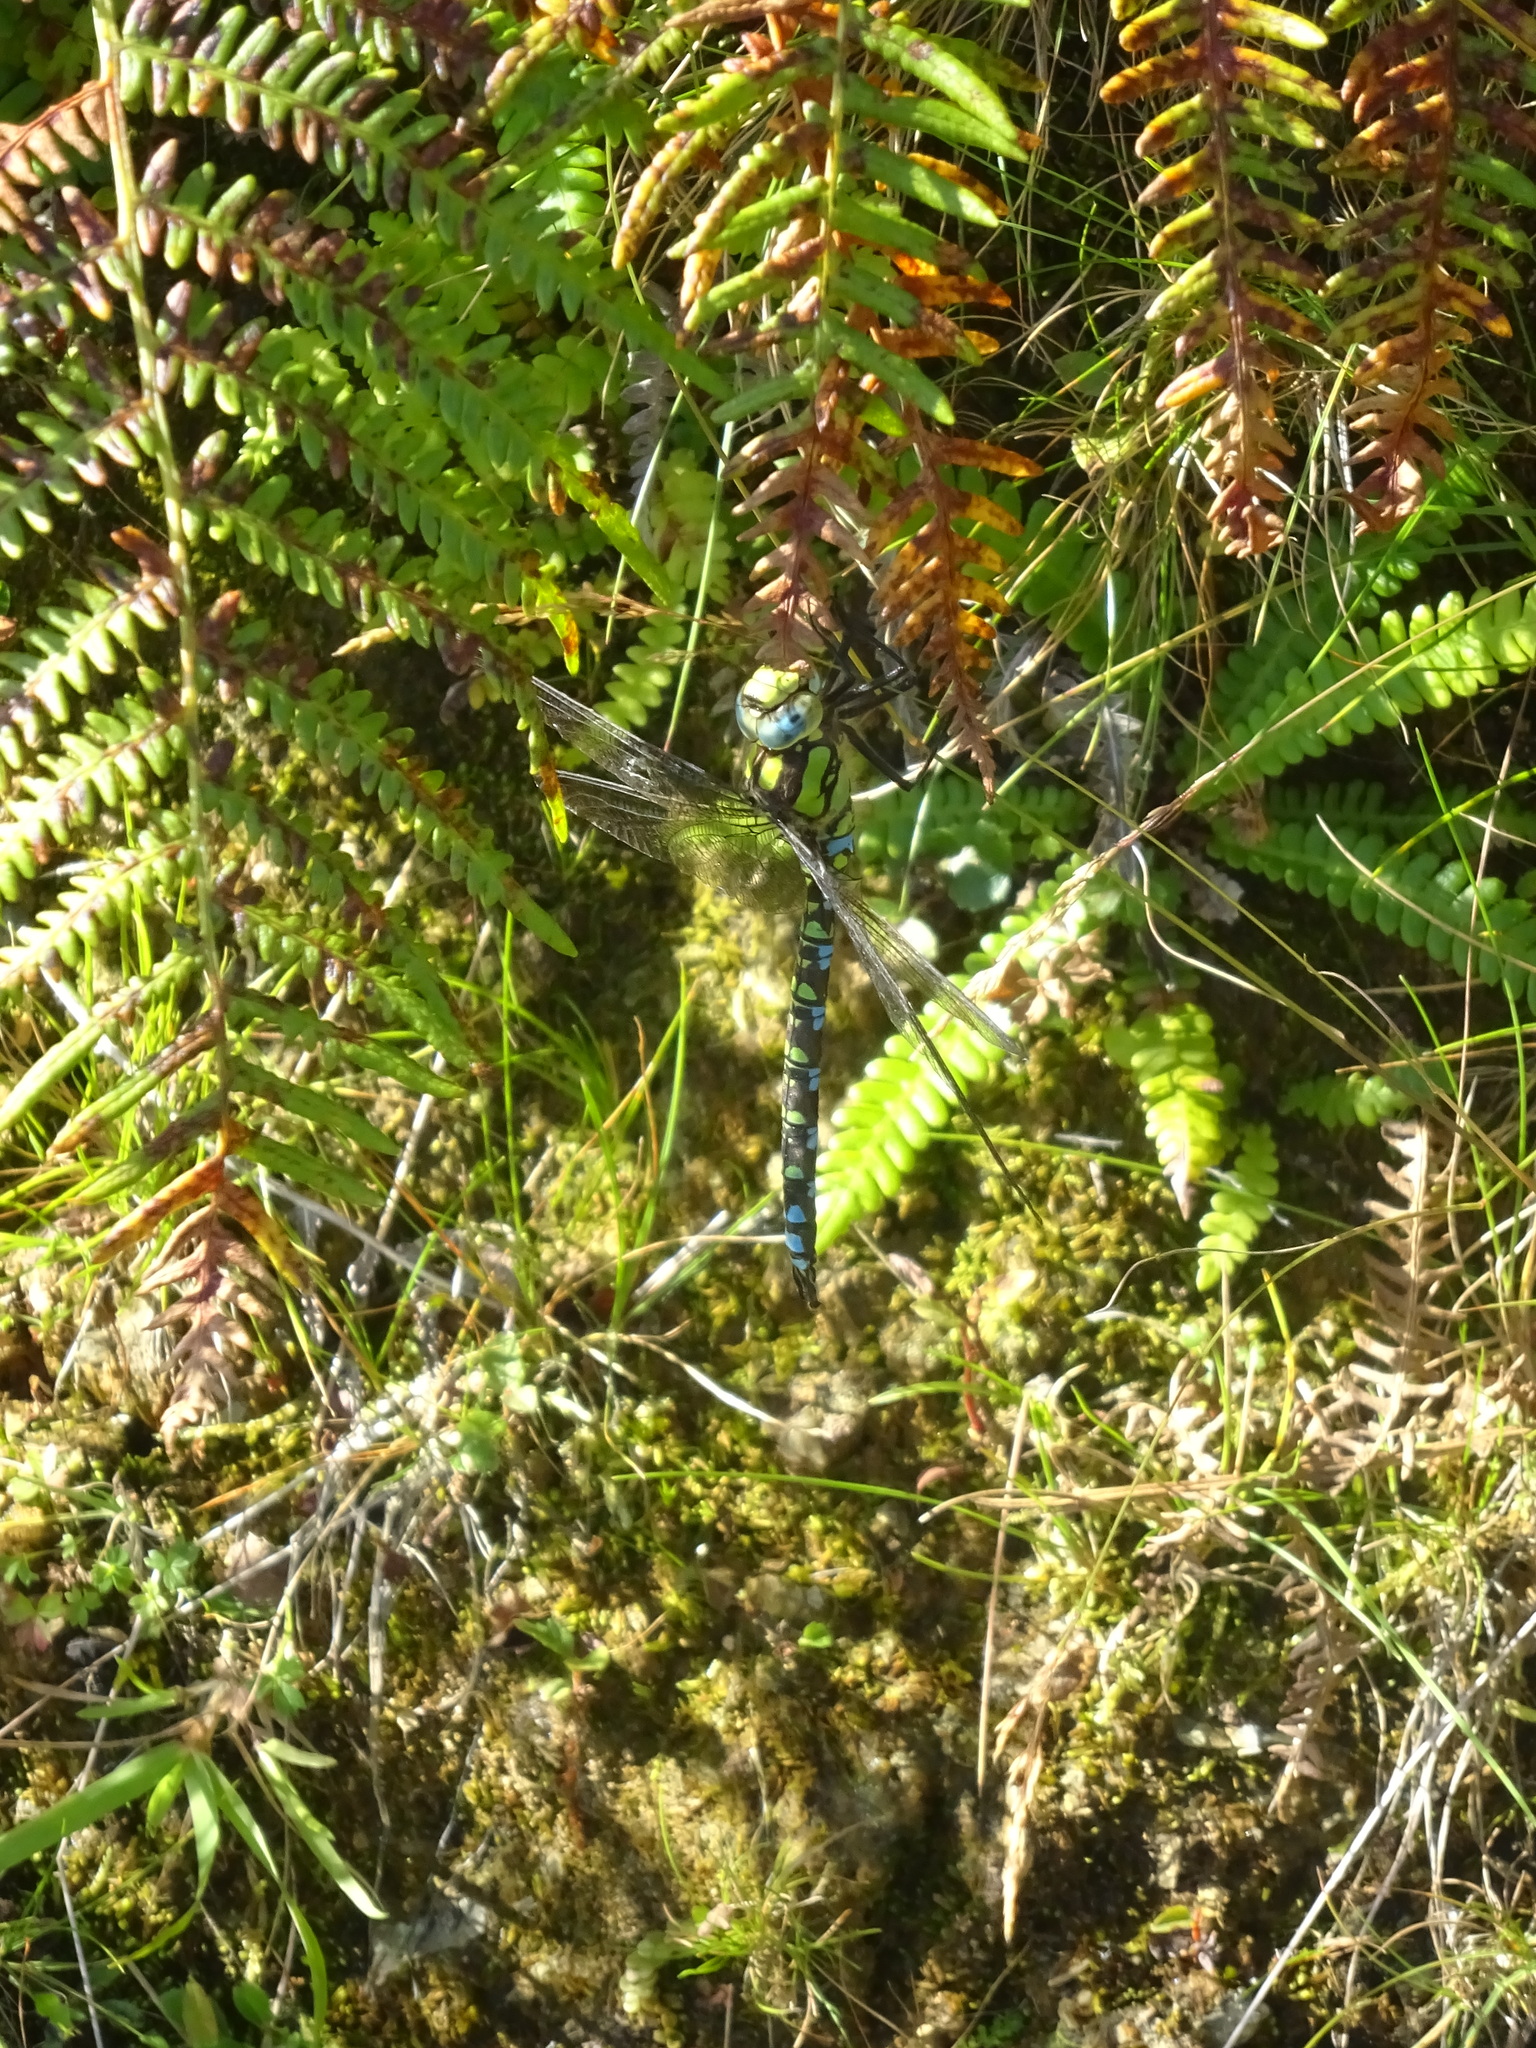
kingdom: Animalia
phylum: Arthropoda
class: Insecta
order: Odonata
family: Aeshnidae
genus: Aeshna
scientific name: Aeshna cyanea
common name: Southern hawker
